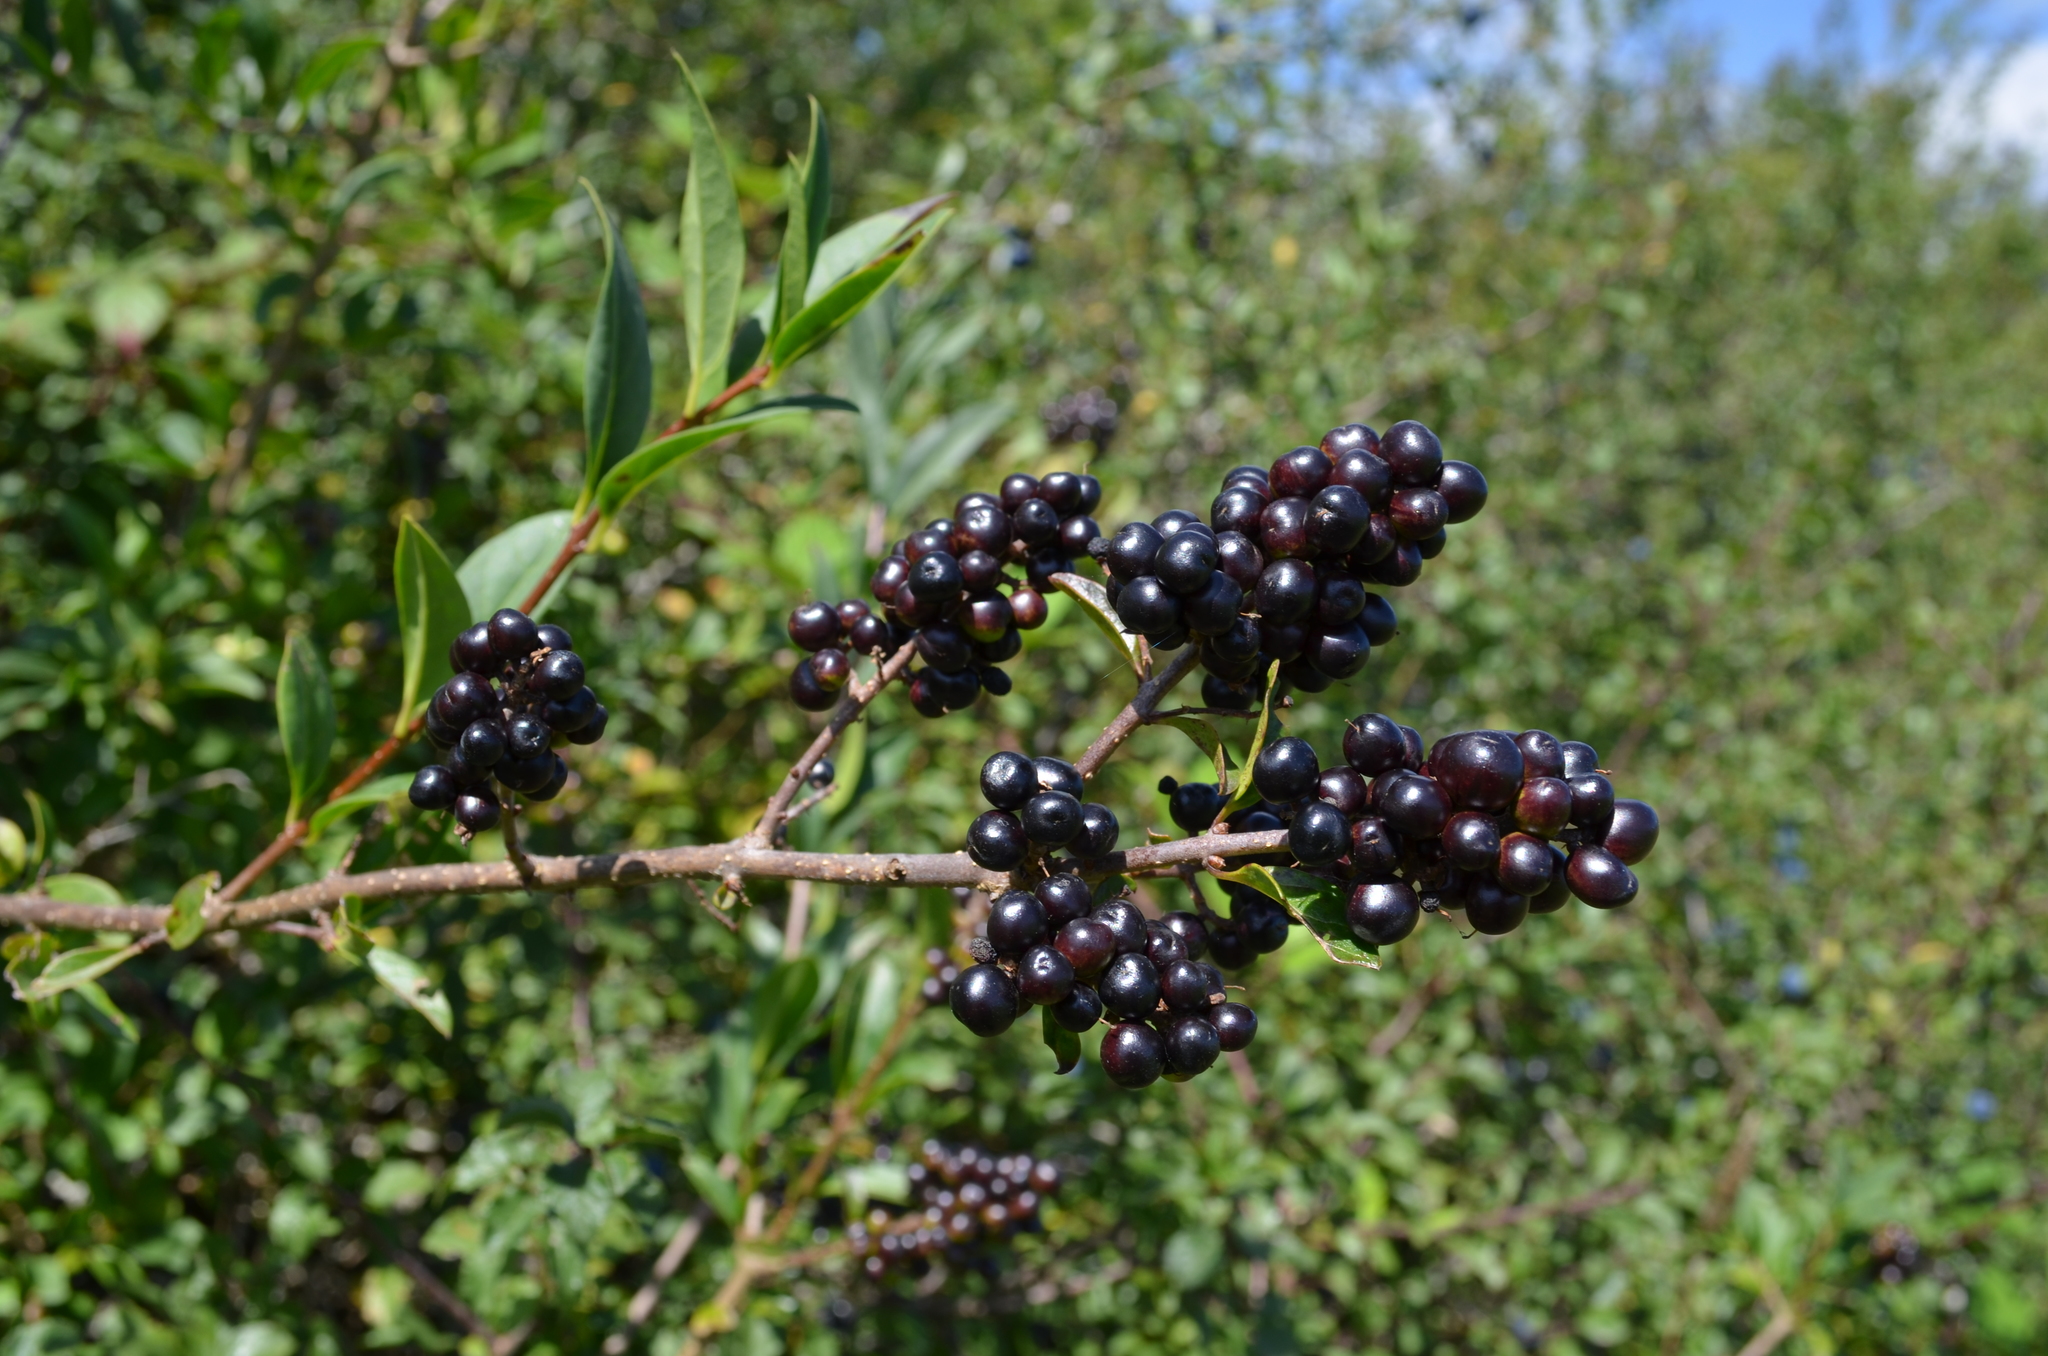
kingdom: Plantae
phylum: Tracheophyta
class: Magnoliopsida
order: Lamiales
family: Oleaceae
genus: Ligustrum
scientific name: Ligustrum vulgare
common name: Wild privet
